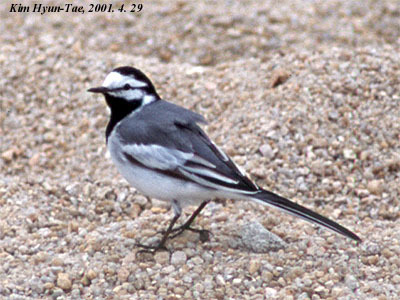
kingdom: Animalia
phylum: Chordata
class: Aves
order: Passeriformes
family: Motacillidae
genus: Motacilla
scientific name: Motacilla alba
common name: White wagtail
